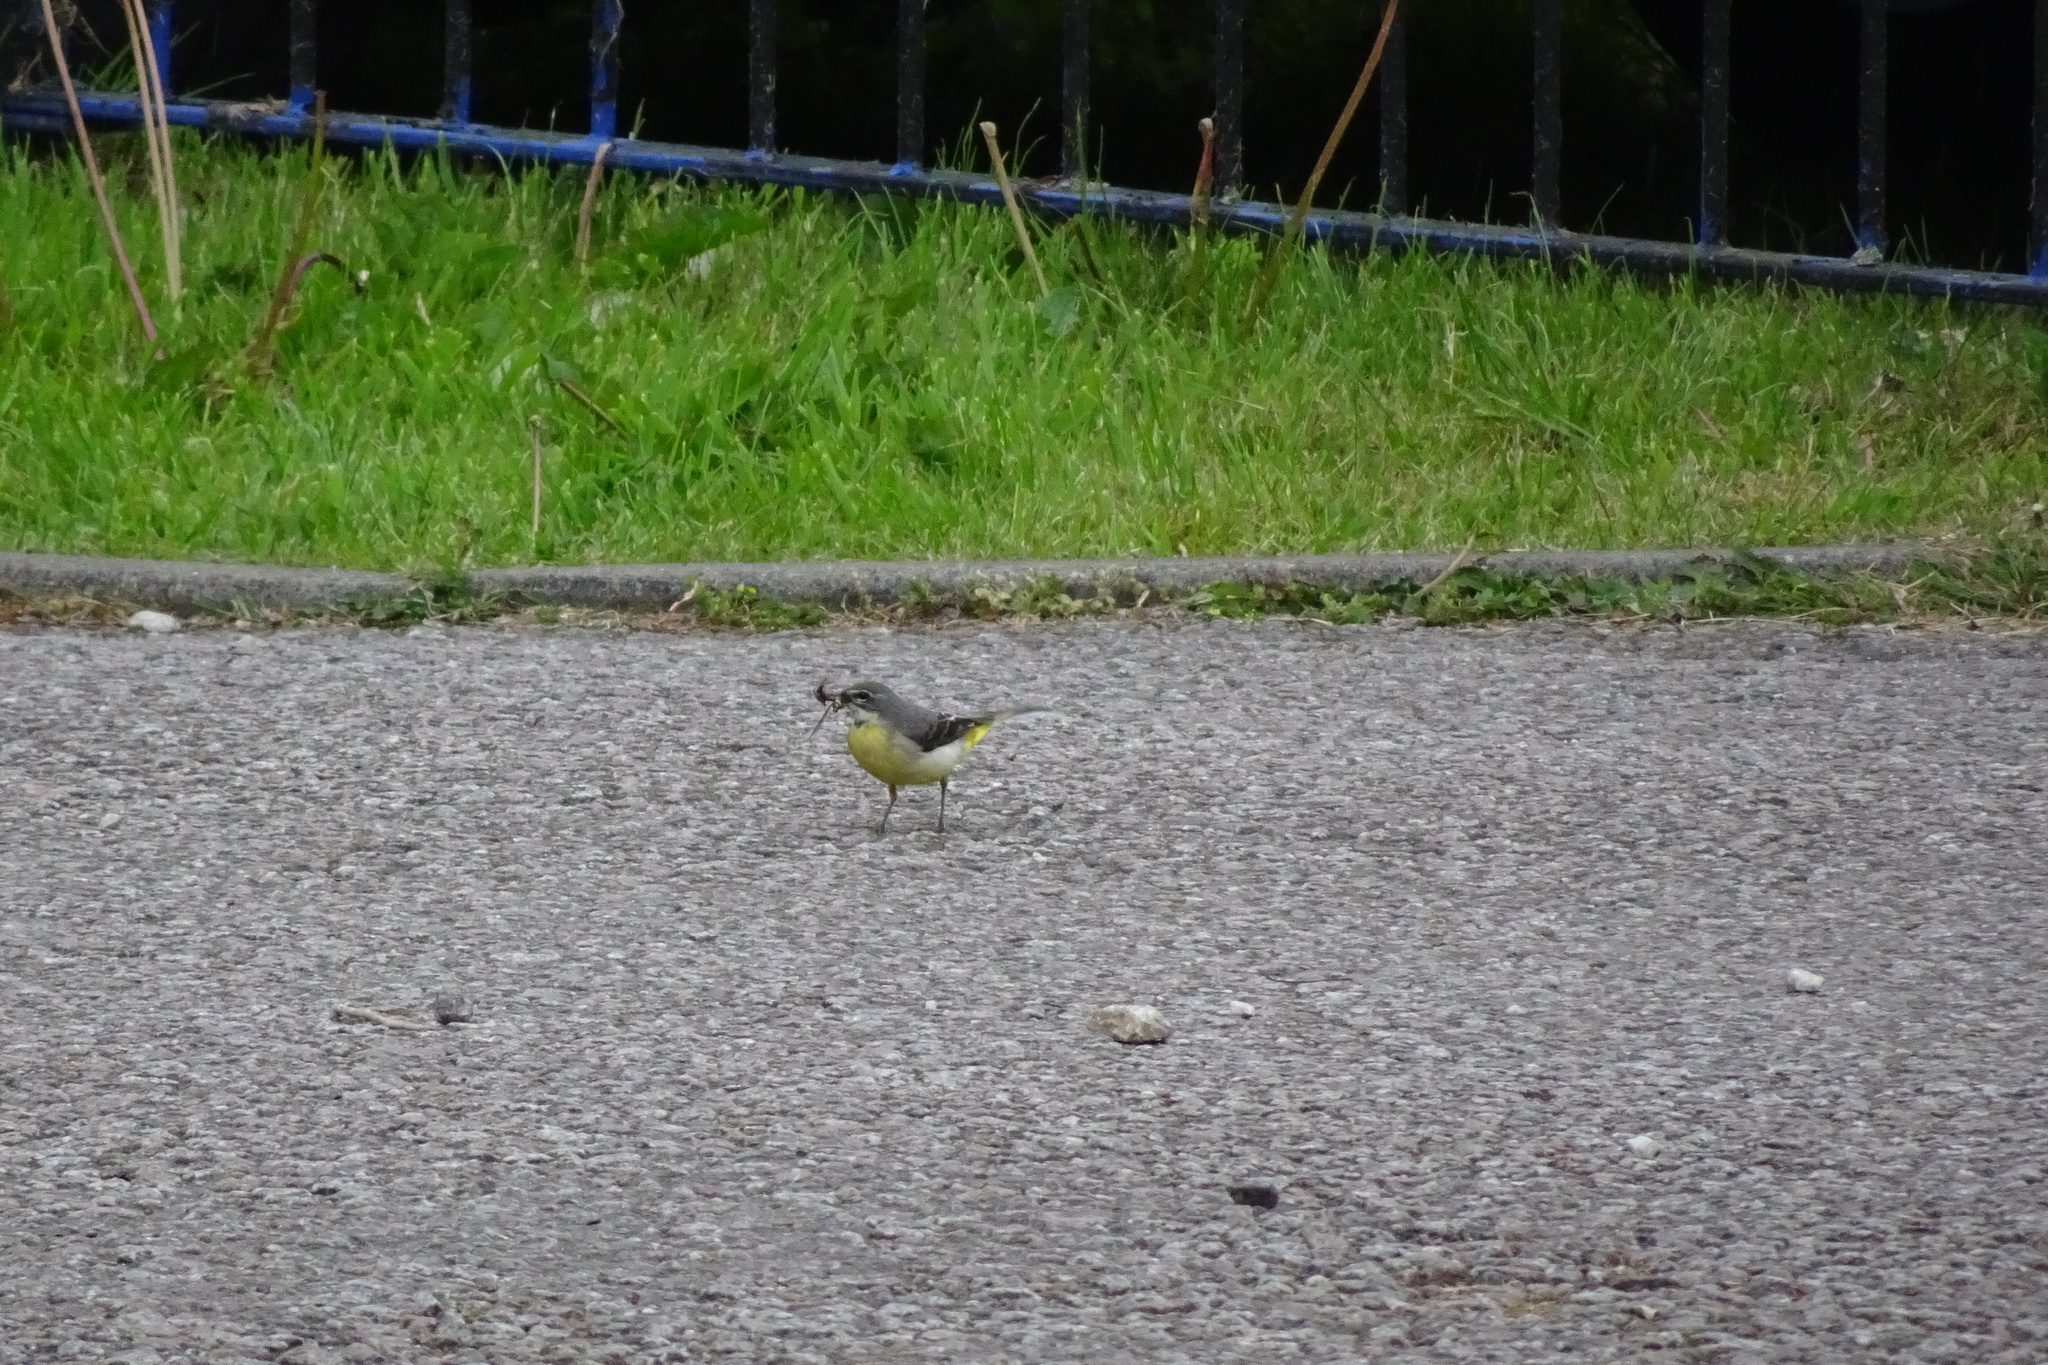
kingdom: Animalia
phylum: Chordata
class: Aves
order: Passeriformes
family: Motacillidae
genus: Motacilla
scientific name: Motacilla cinerea
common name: Grey wagtail
